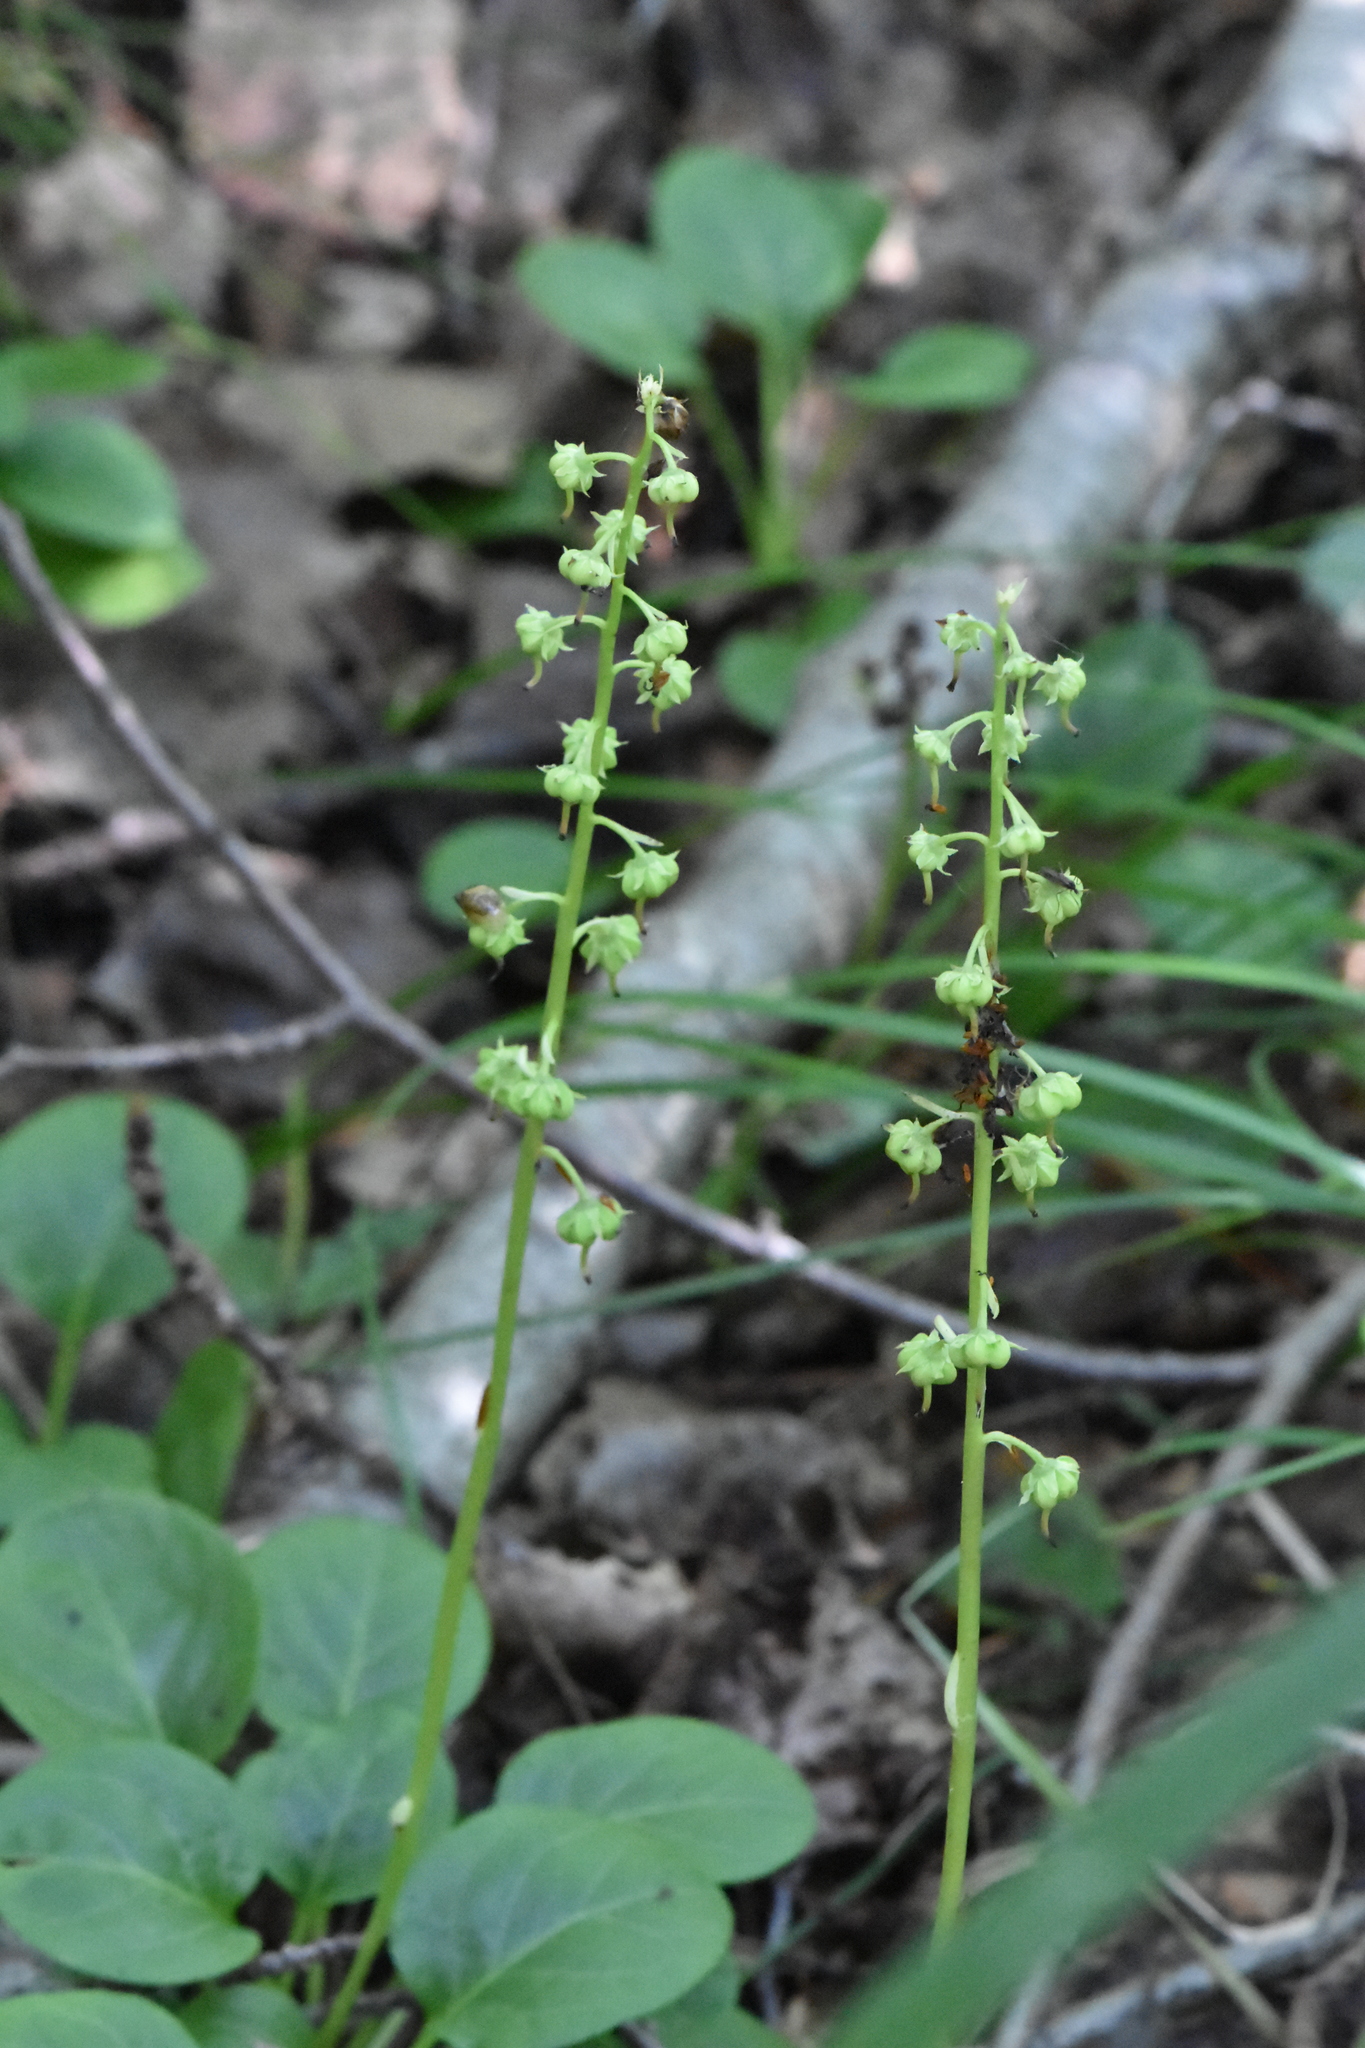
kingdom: Plantae
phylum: Tracheophyta
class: Magnoliopsida
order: Ericales
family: Ericaceae
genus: Pyrola
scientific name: Pyrola rotundifolia
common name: Round-leaved wintergreen
